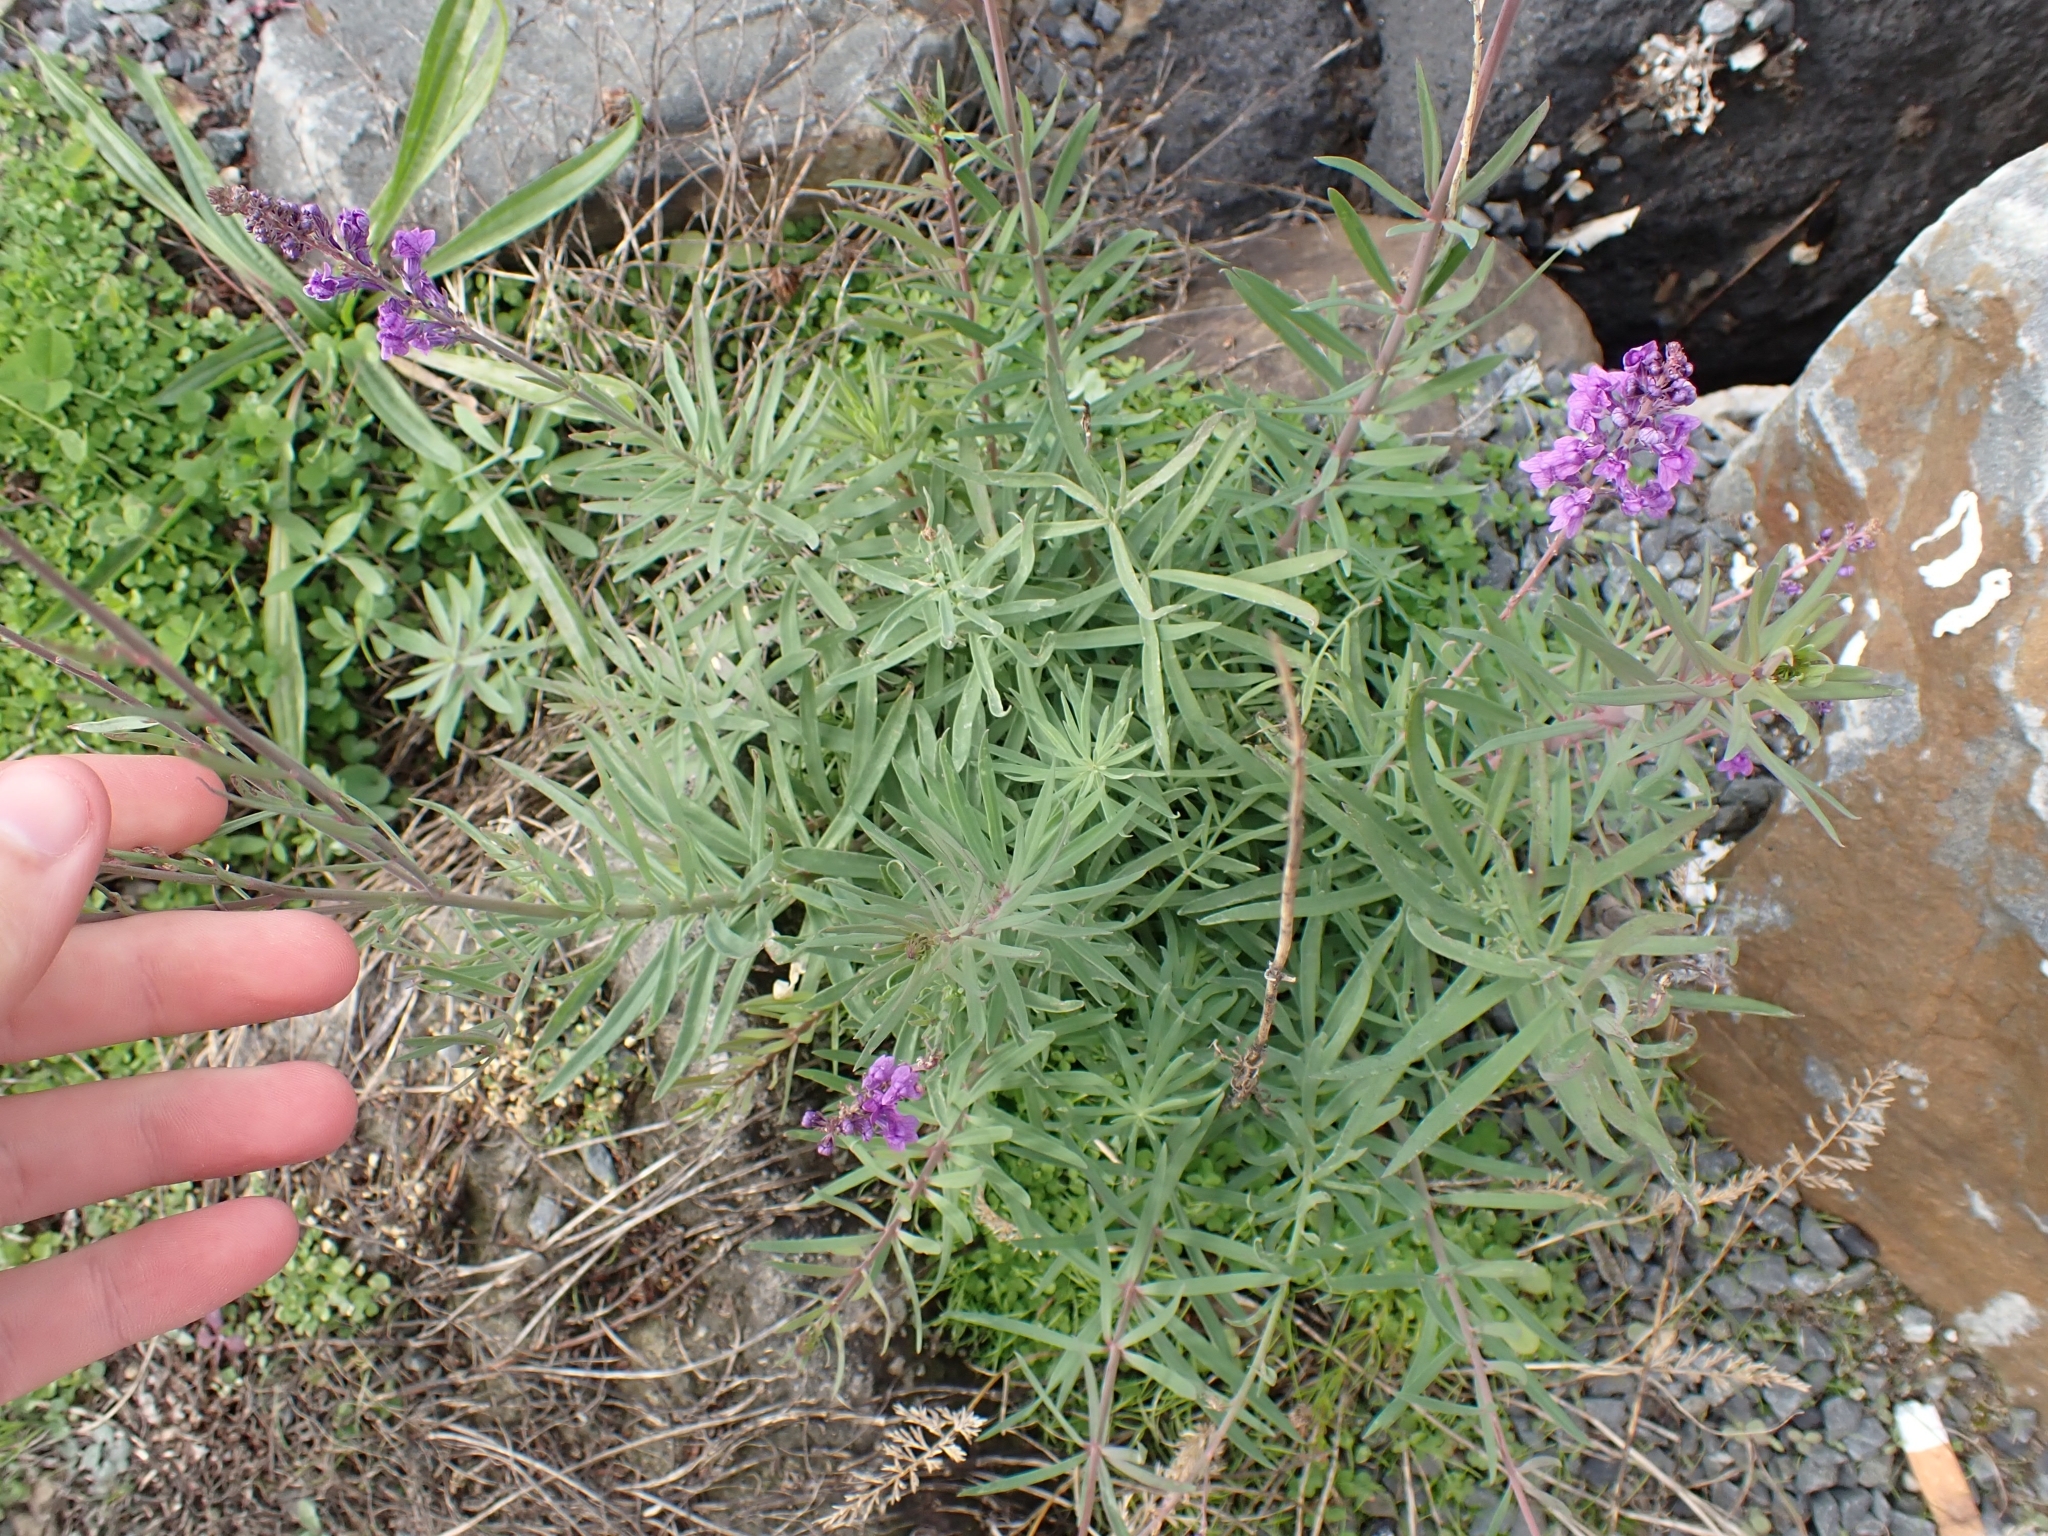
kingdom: Plantae
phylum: Tracheophyta
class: Magnoliopsida
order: Lamiales
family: Plantaginaceae
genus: Linaria
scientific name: Linaria purpurea
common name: Purple toadflax
